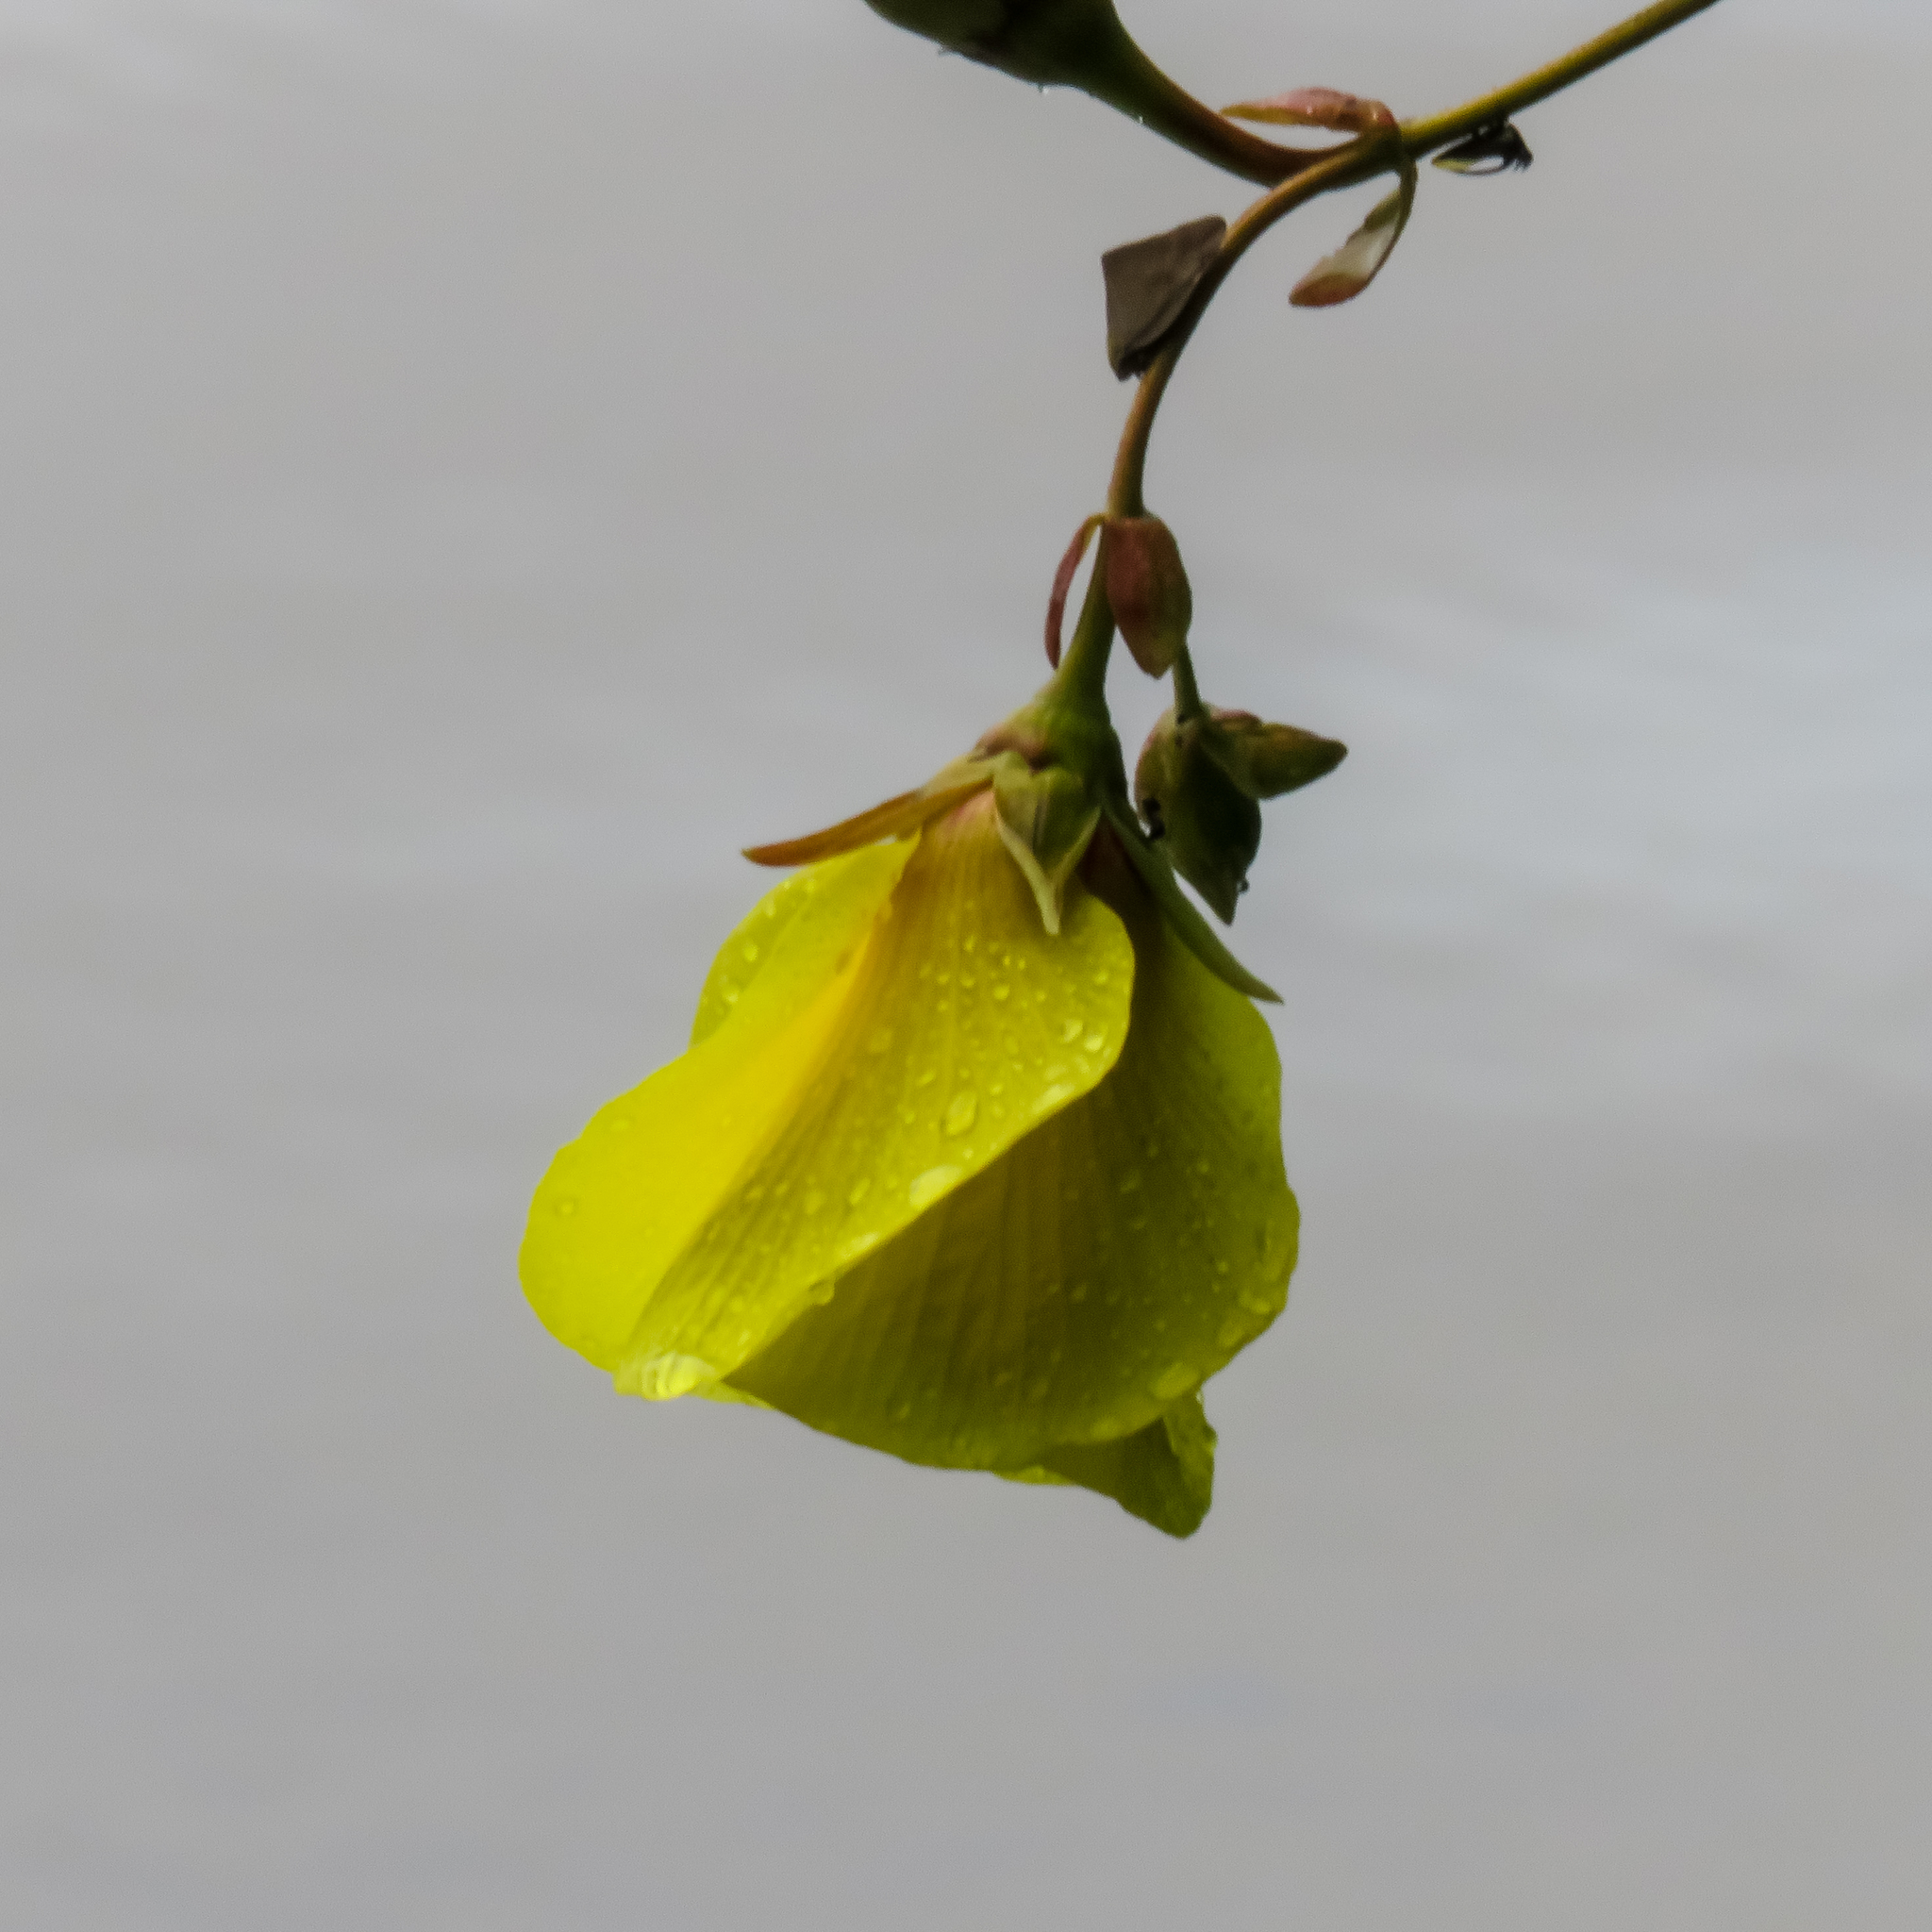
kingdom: Plantae
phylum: Tracheophyta
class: Magnoliopsida
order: Malvales
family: Malvaceae
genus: Talipariti
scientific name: Talipariti tiliaceum
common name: Sea hibiscus
